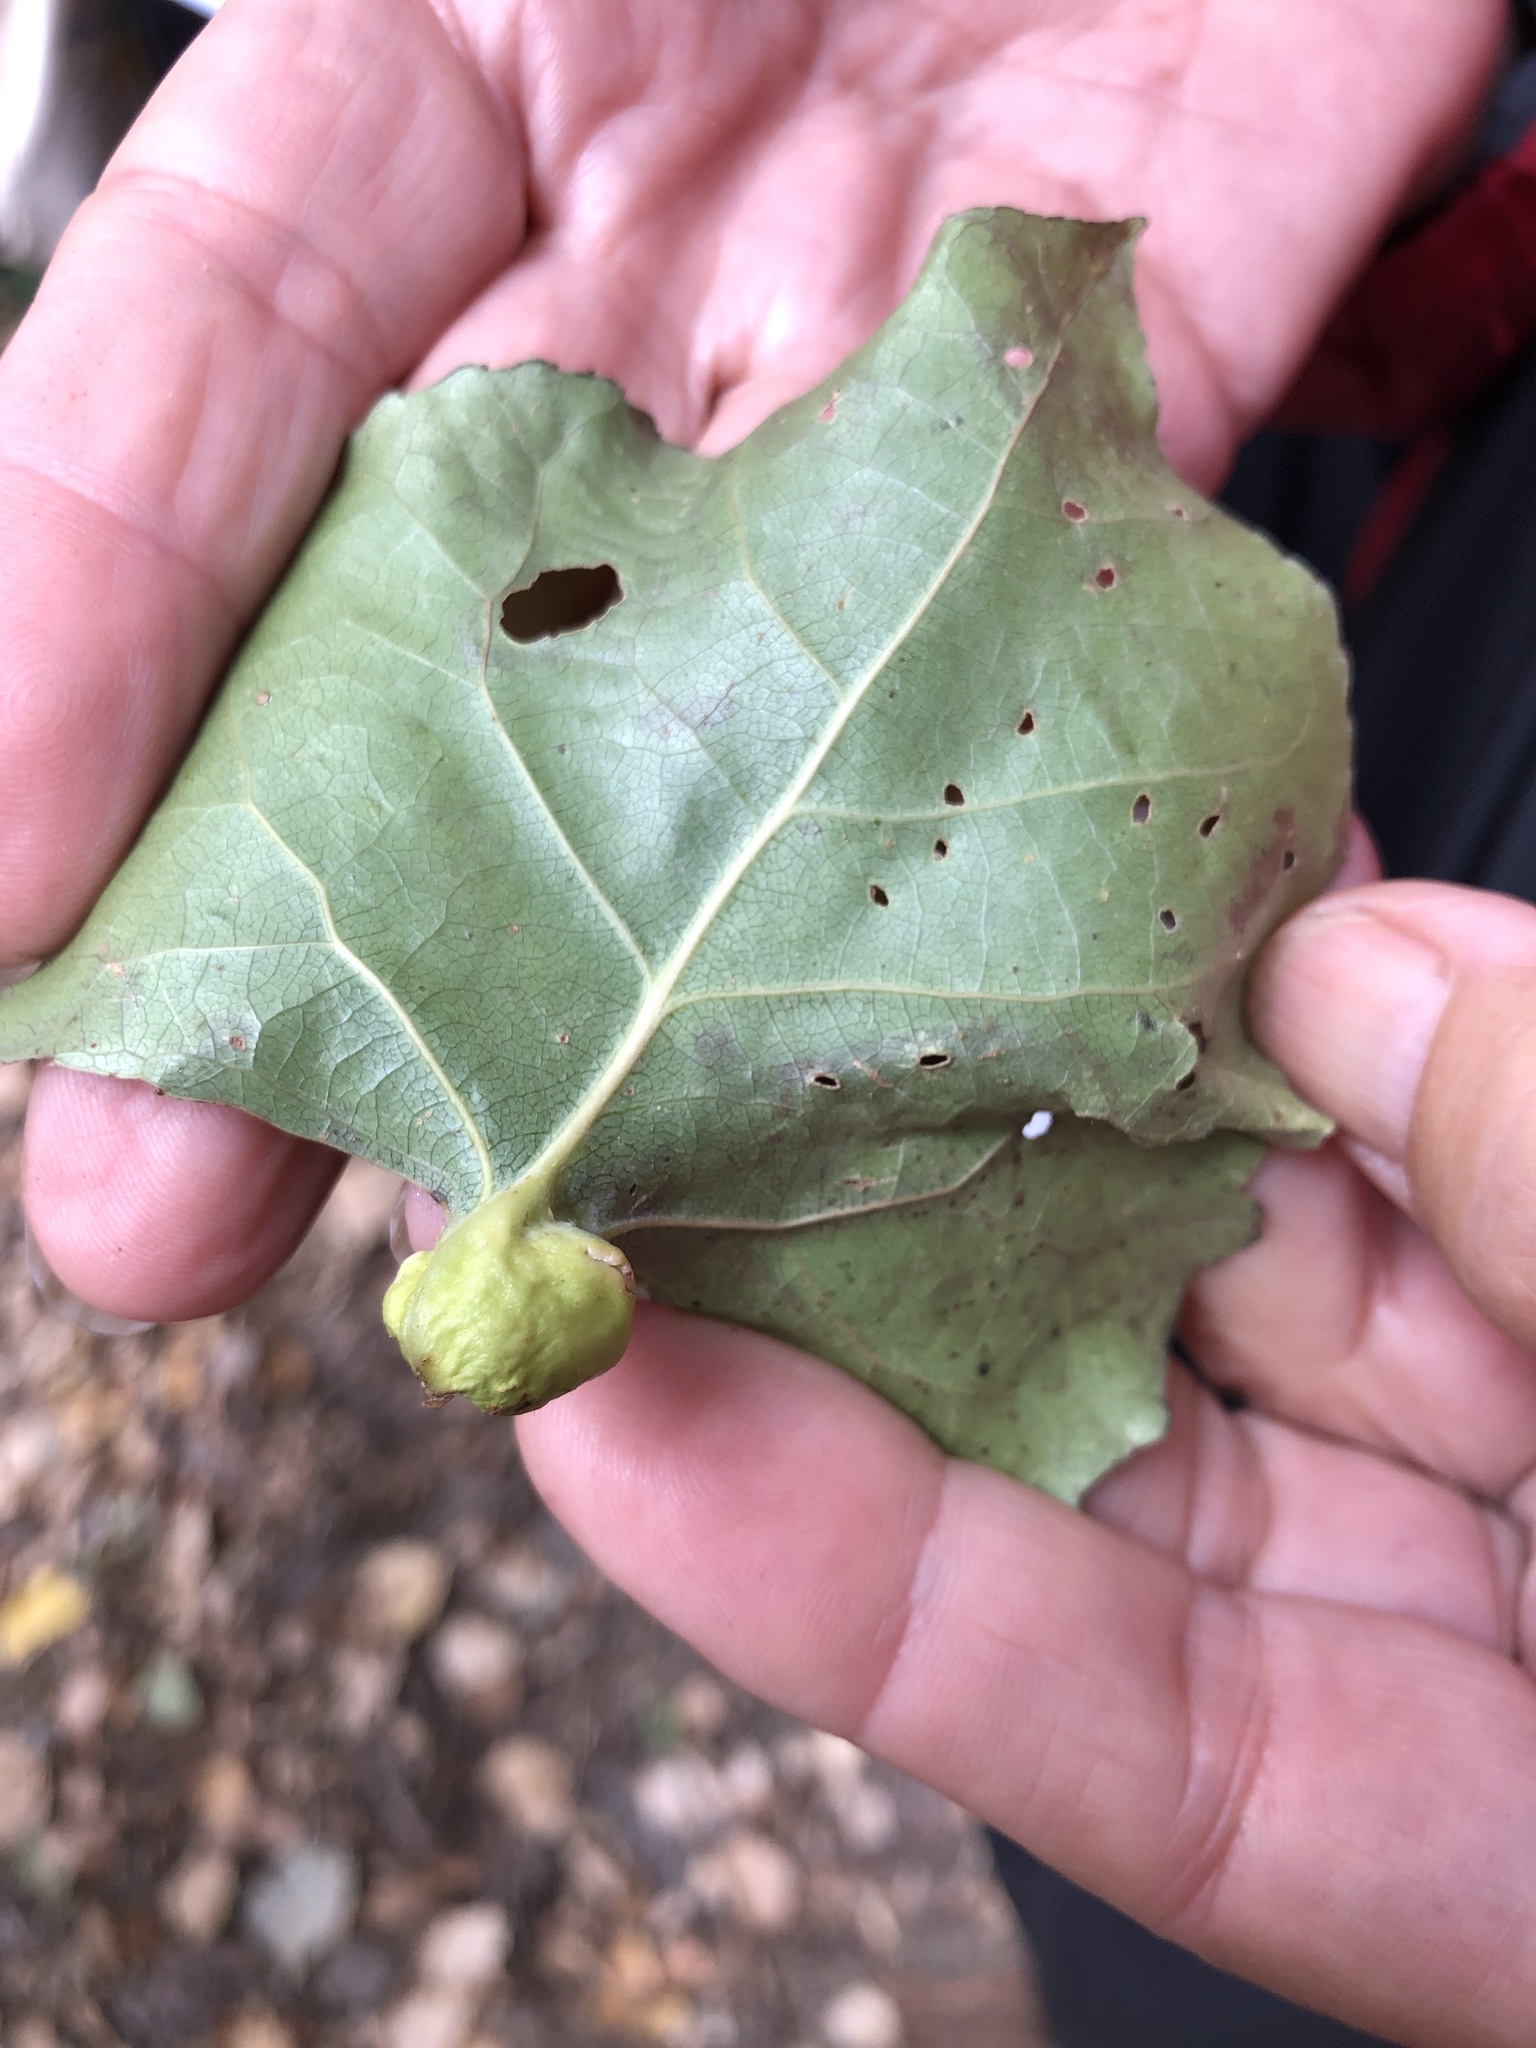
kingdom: Animalia
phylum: Arthropoda
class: Insecta
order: Hemiptera
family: Aphididae
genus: Pemphigus
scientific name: Pemphigus obesinymphae
